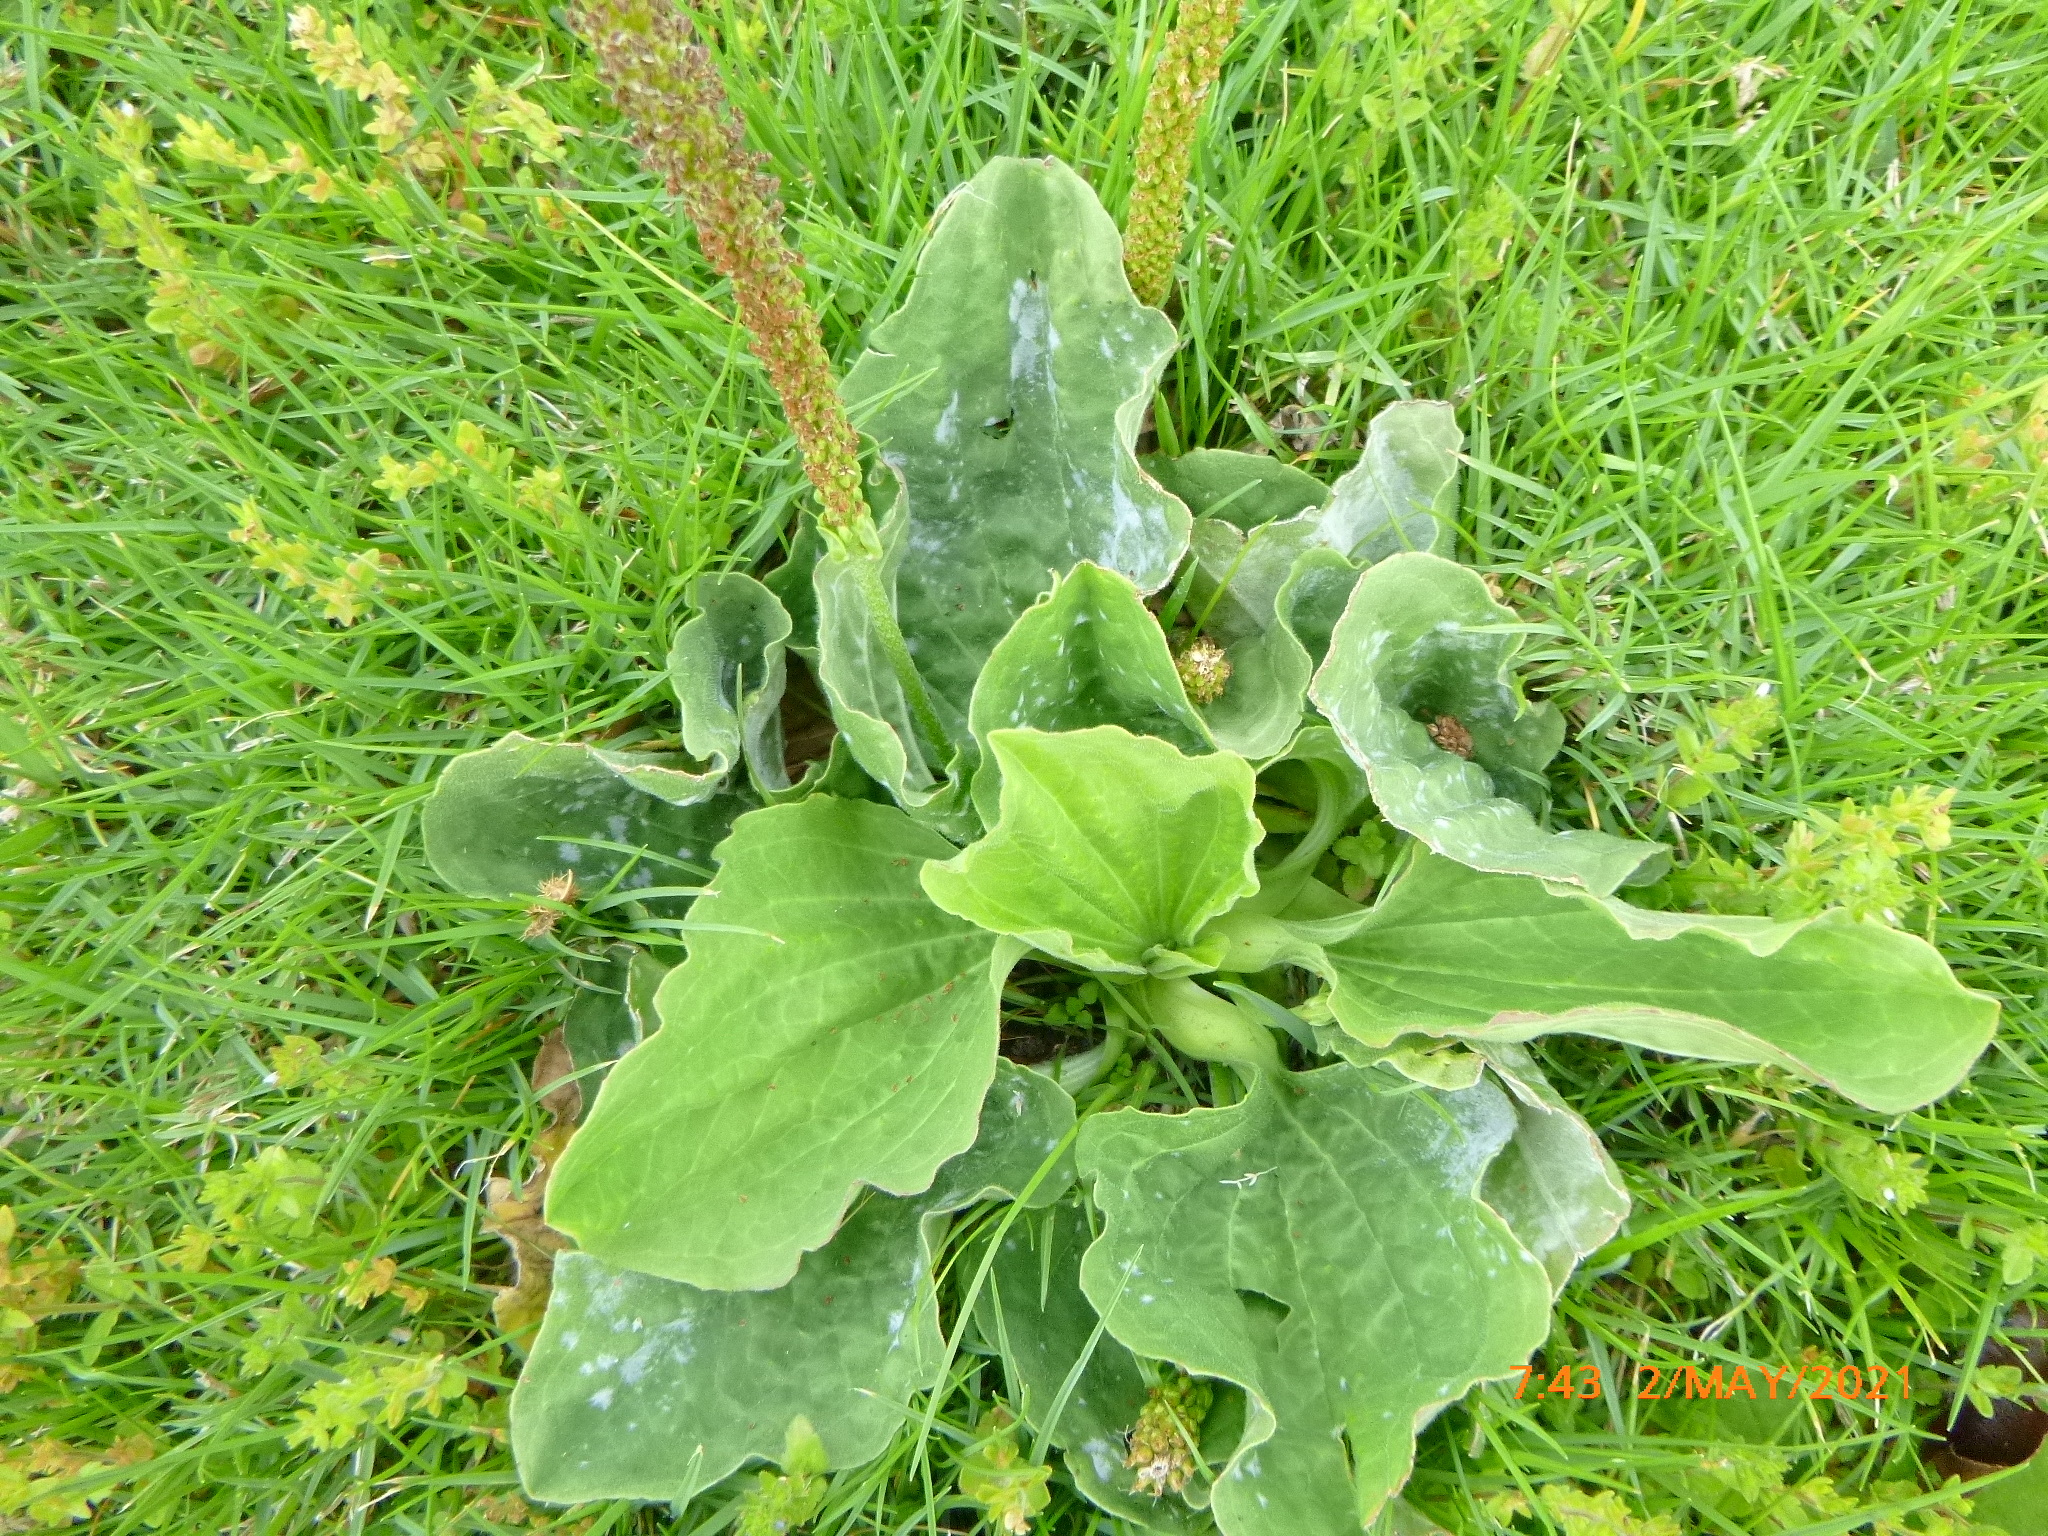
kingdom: Plantae
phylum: Tracheophyta
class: Magnoliopsida
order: Lamiales
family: Plantaginaceae
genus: Plantago
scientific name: Plantago major
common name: Common plantain
